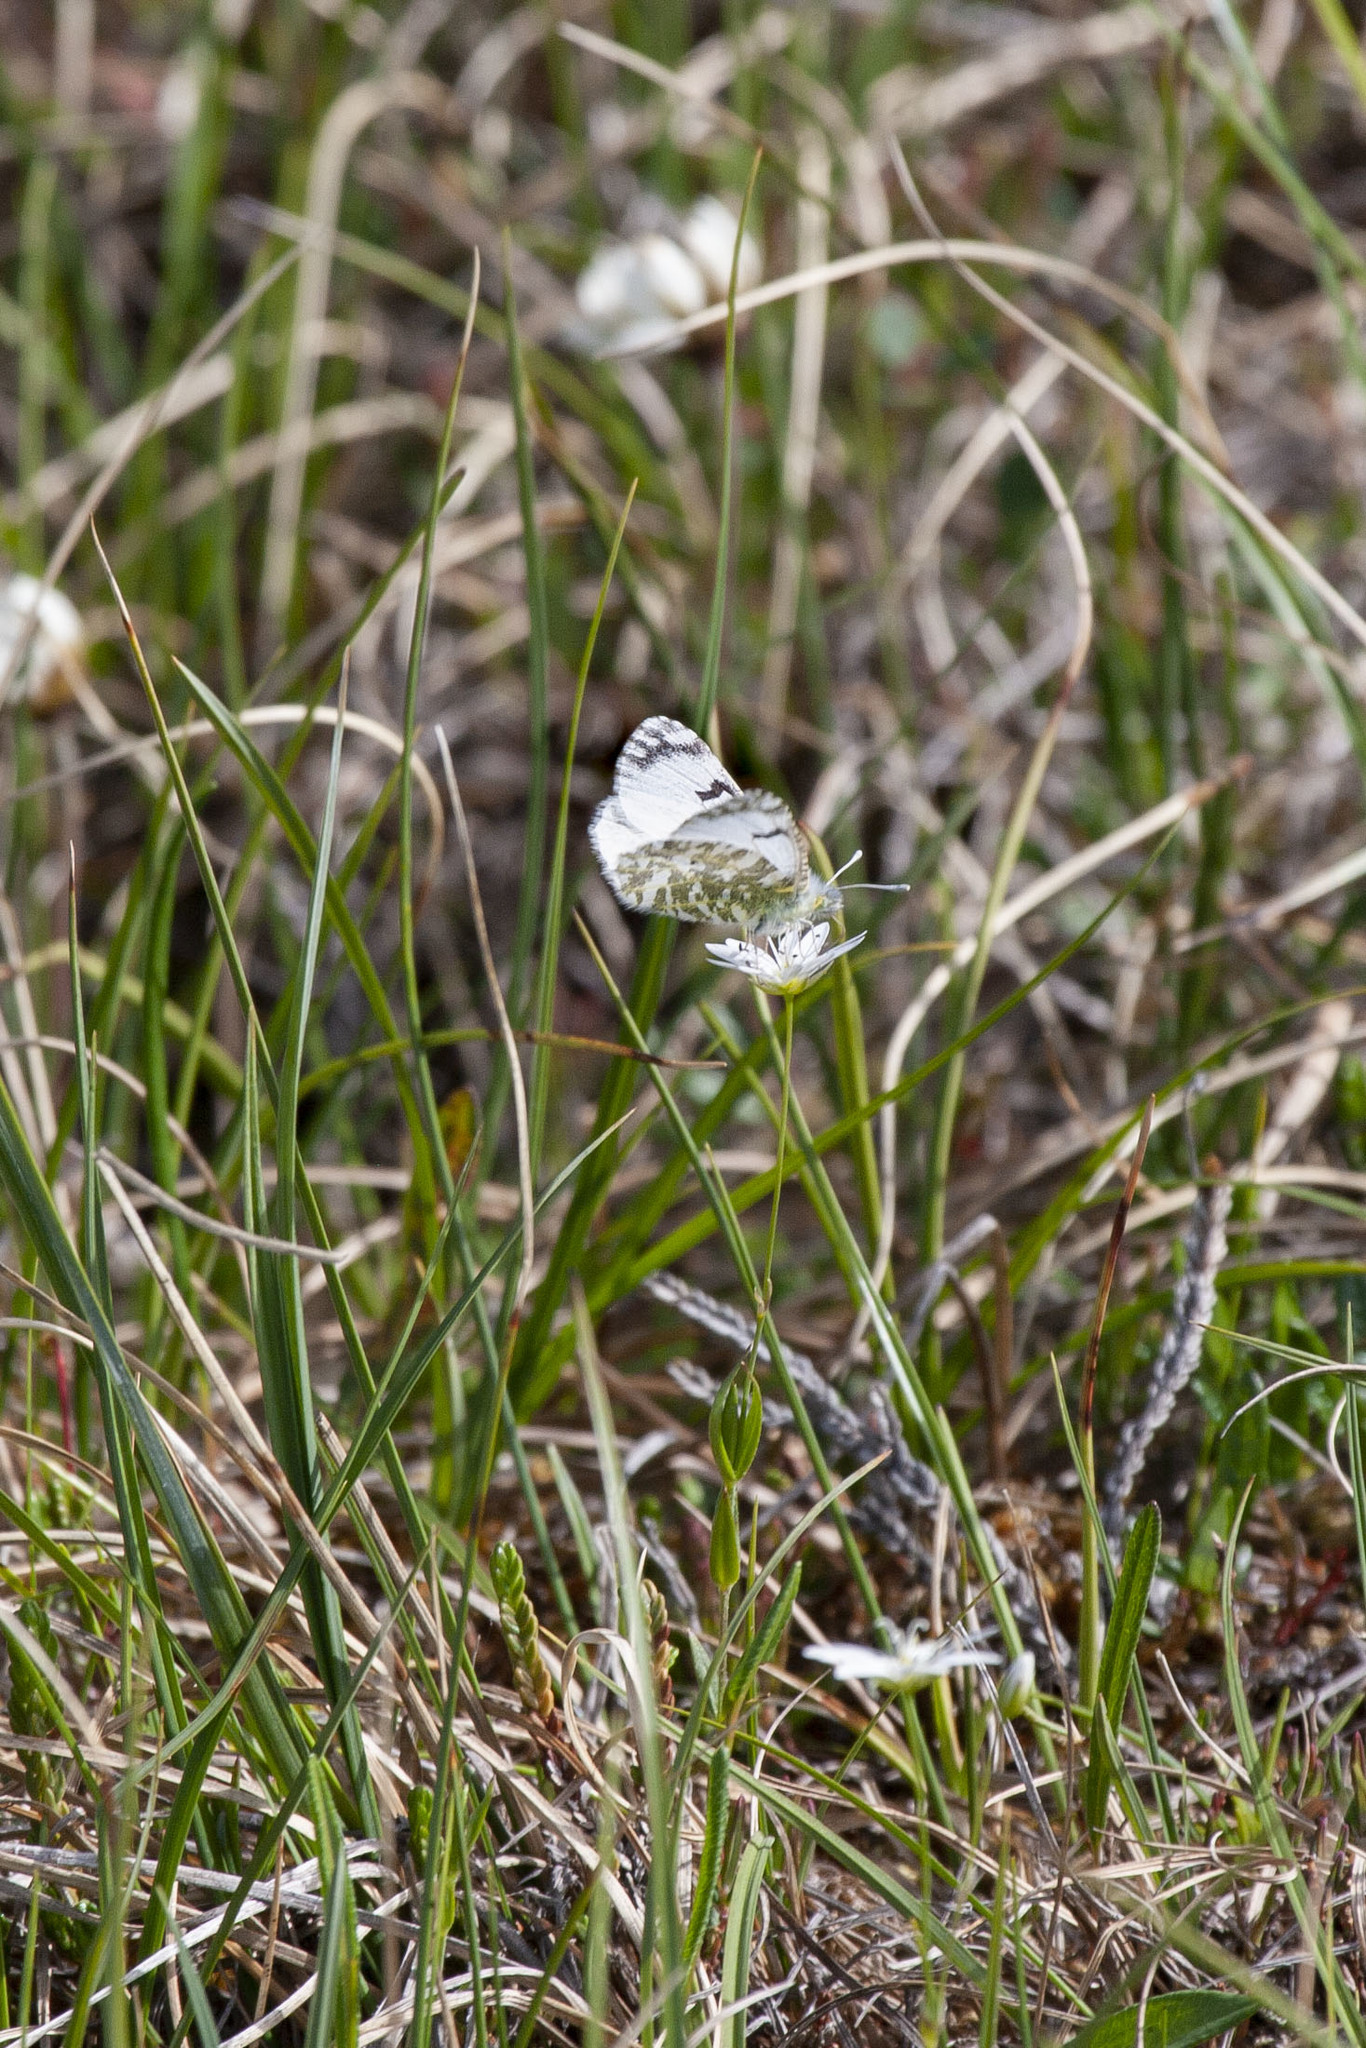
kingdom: Animalia
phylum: Arthropoda
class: Insecta
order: Lepidoptera
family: Pieridae
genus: Euchloe
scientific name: Euchloe creusa
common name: Northern marblewing
